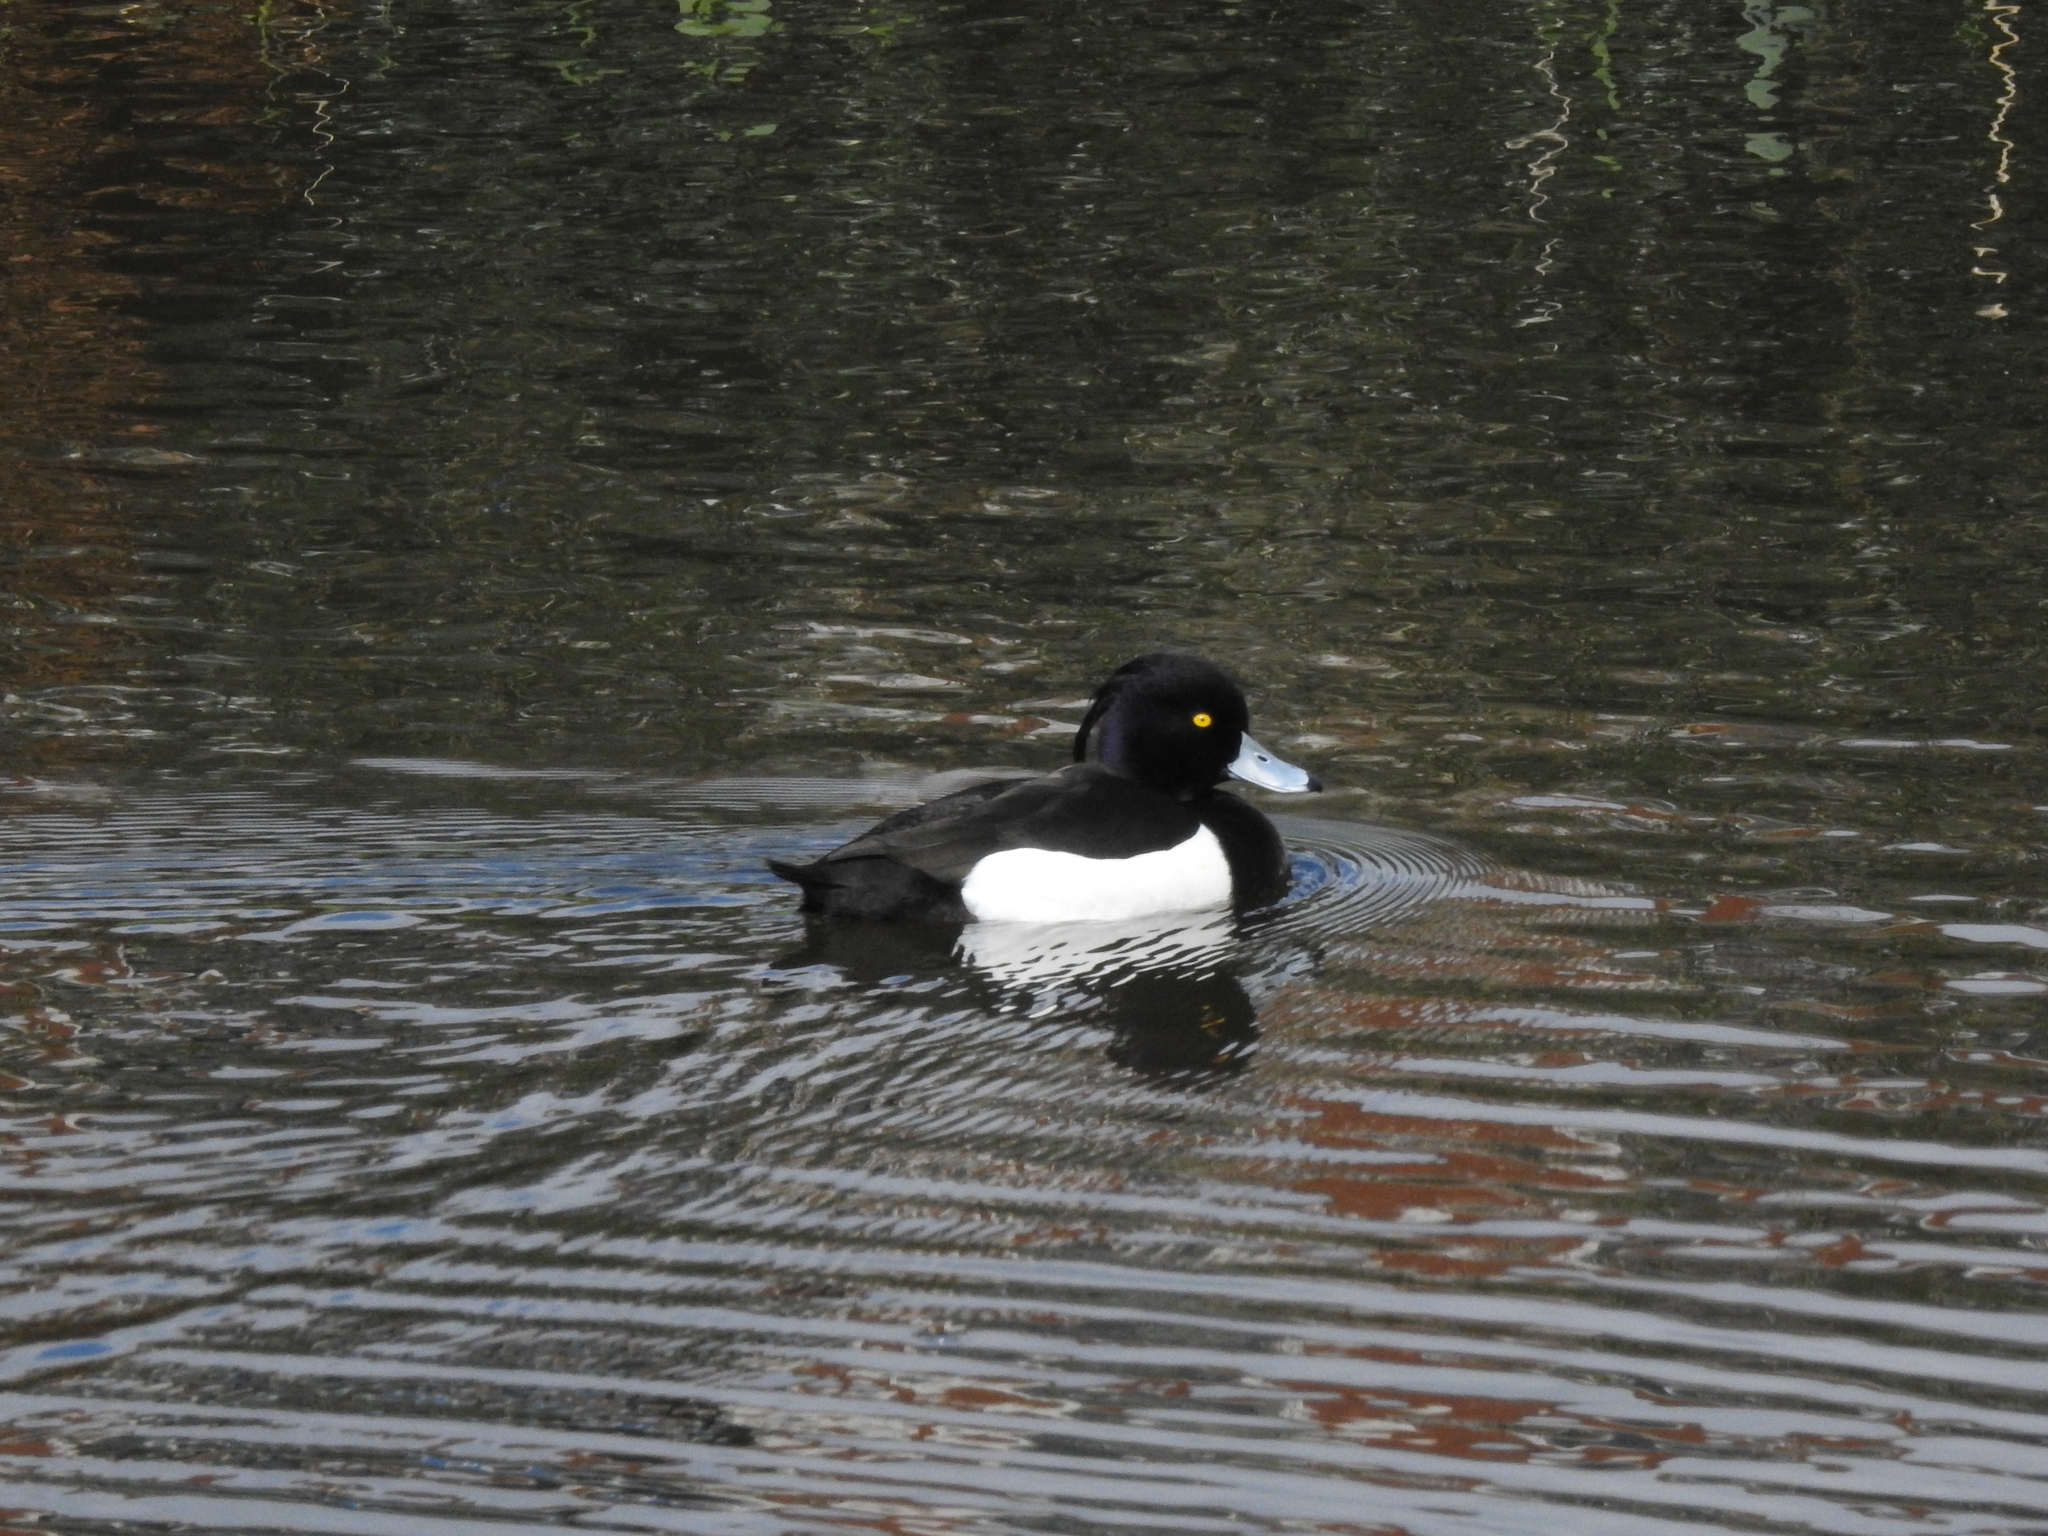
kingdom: Animalia
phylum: Chordata
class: Aves
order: Anseriformes
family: Anatidae
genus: Aythya
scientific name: Aythya fuligula
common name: Tufted duck
